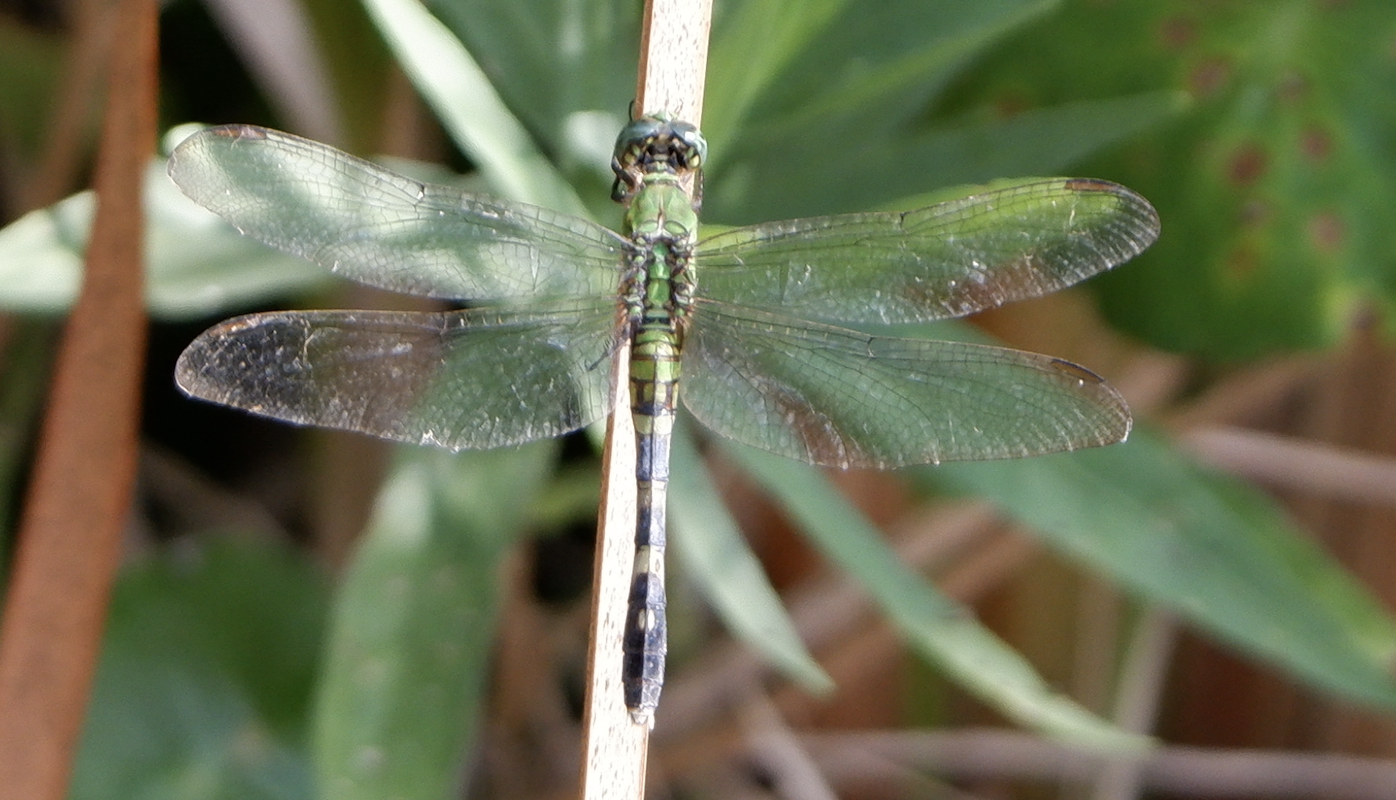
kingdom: Animalia
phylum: Arthropoda
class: Insecta
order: Odonata
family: Libellulidae
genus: Erythemis
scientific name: Erythemis simplicicollis
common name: Eastern pondhawk
